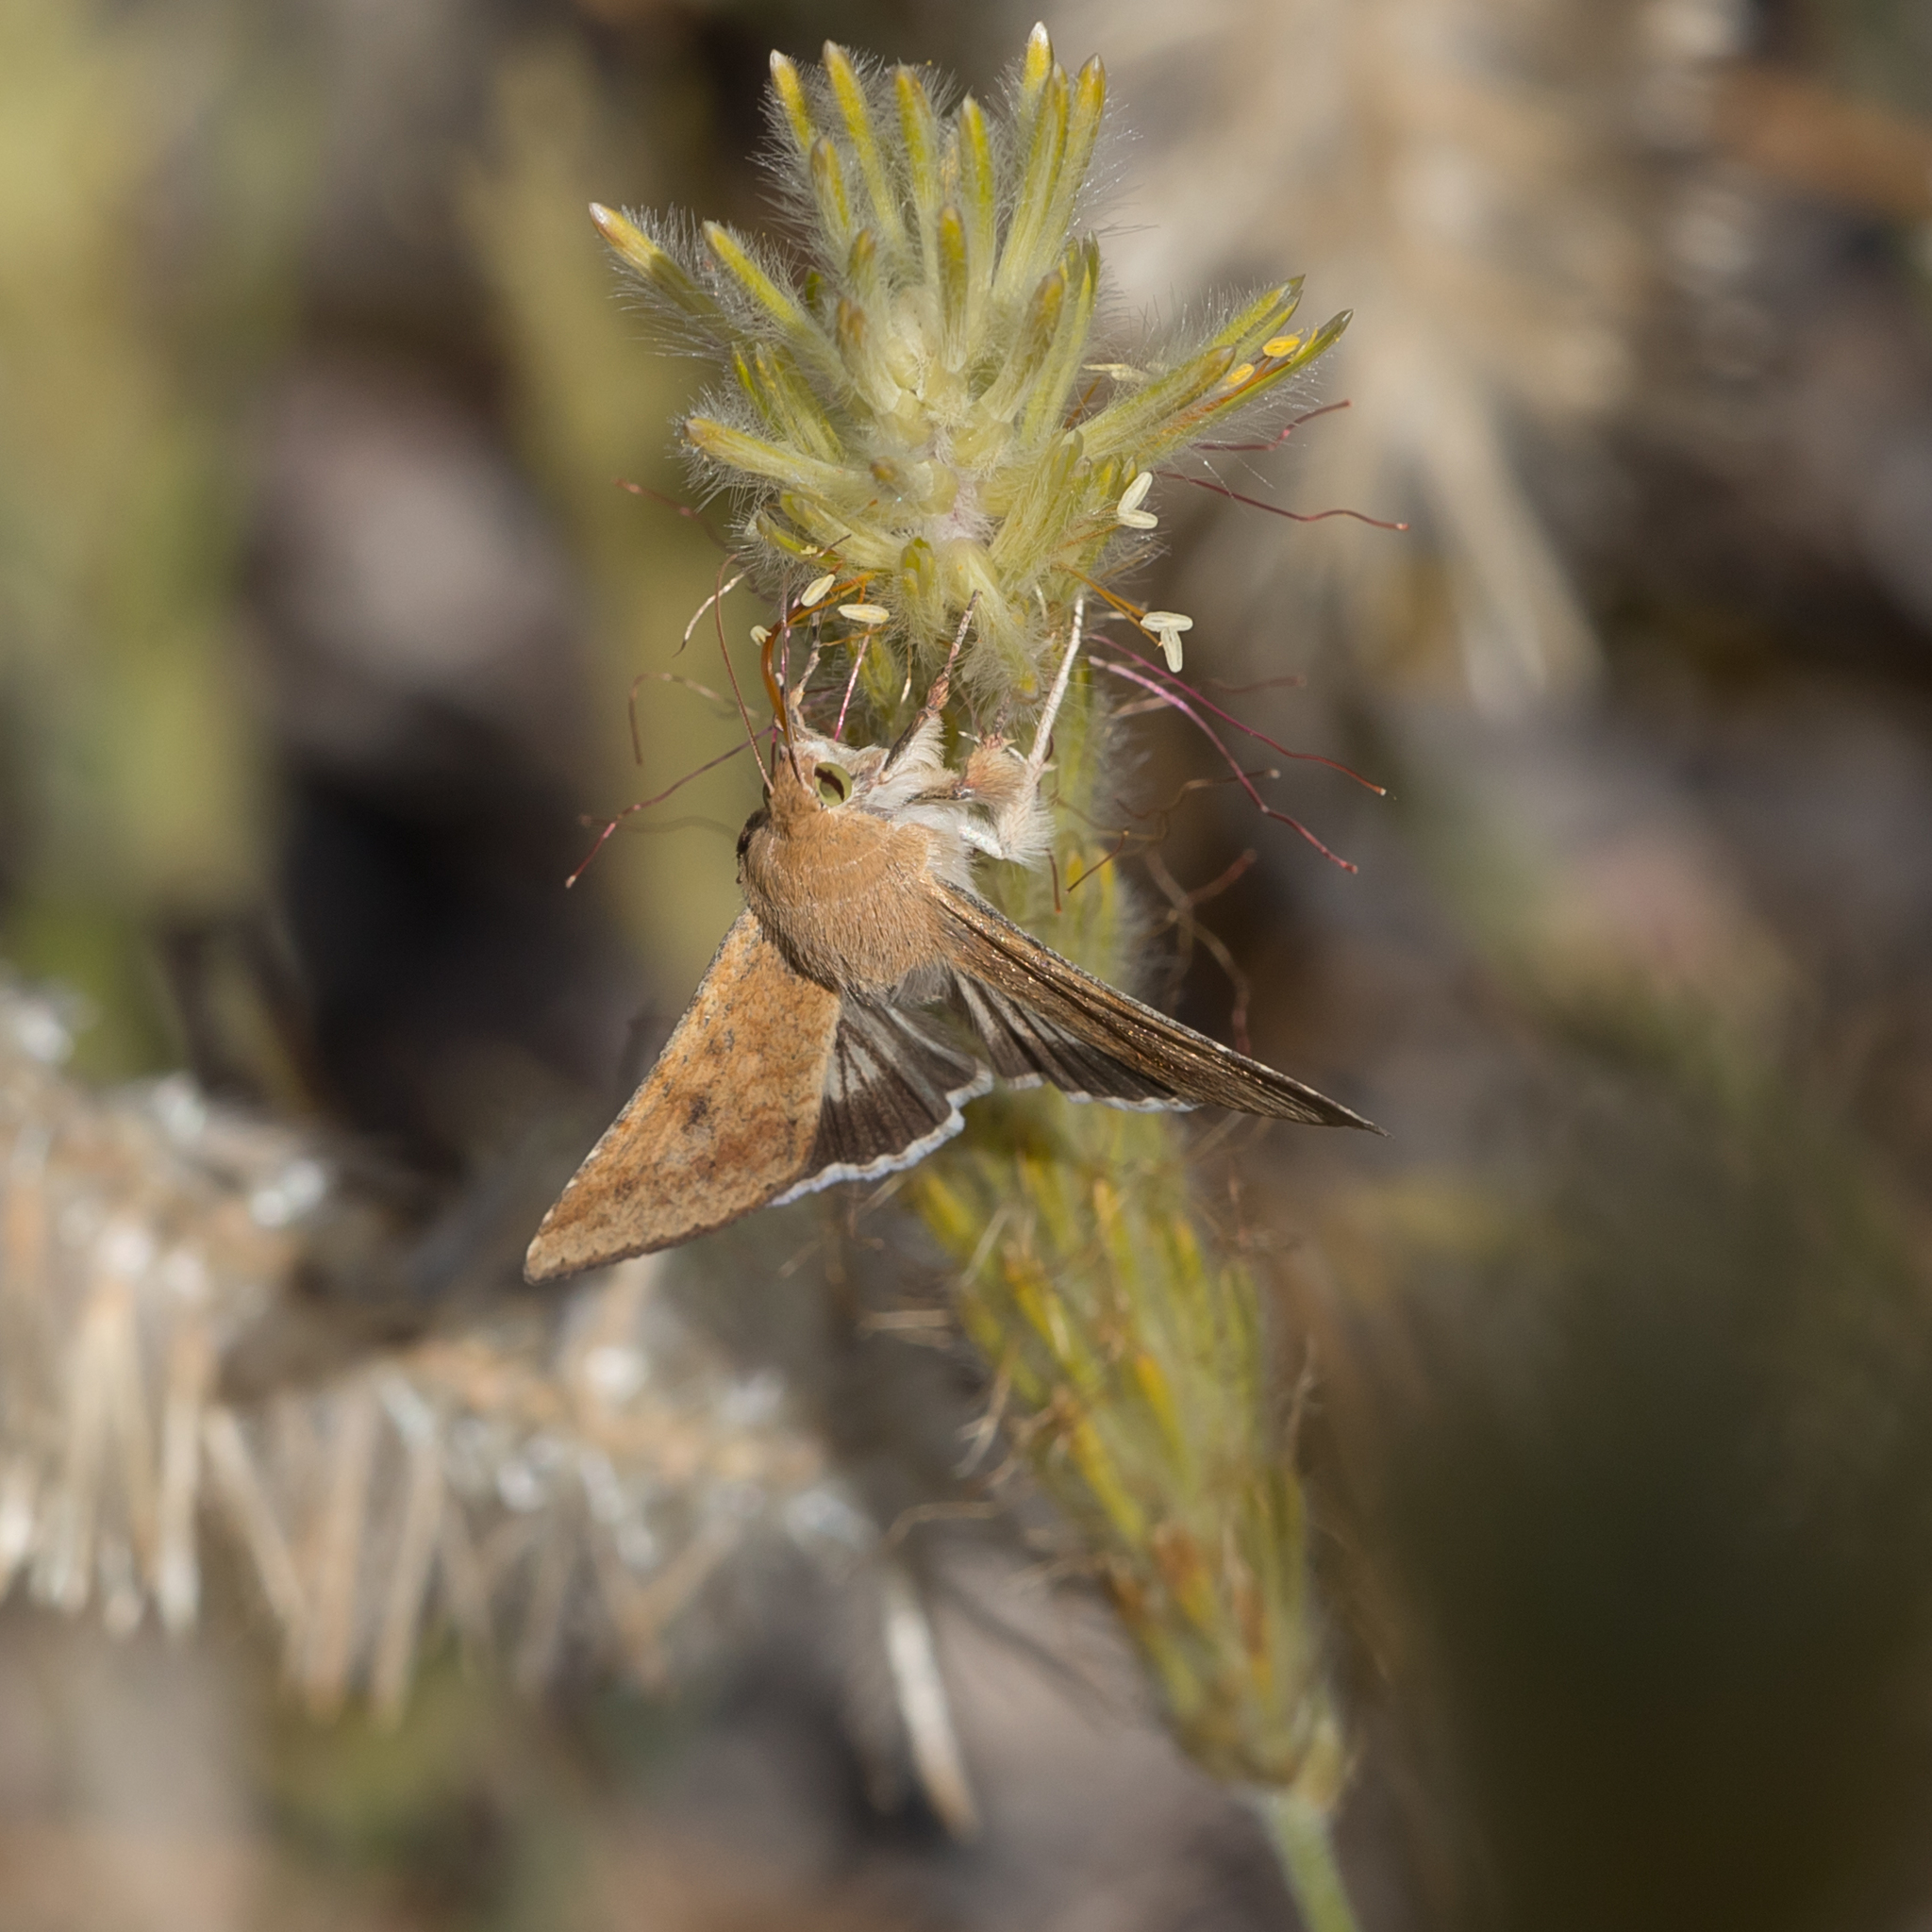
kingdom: Animalia
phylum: Arthropoda
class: Insecta
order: Lepidoptera
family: Noctuidae
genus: Helicoverpa
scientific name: Helicoverpa punctigera
